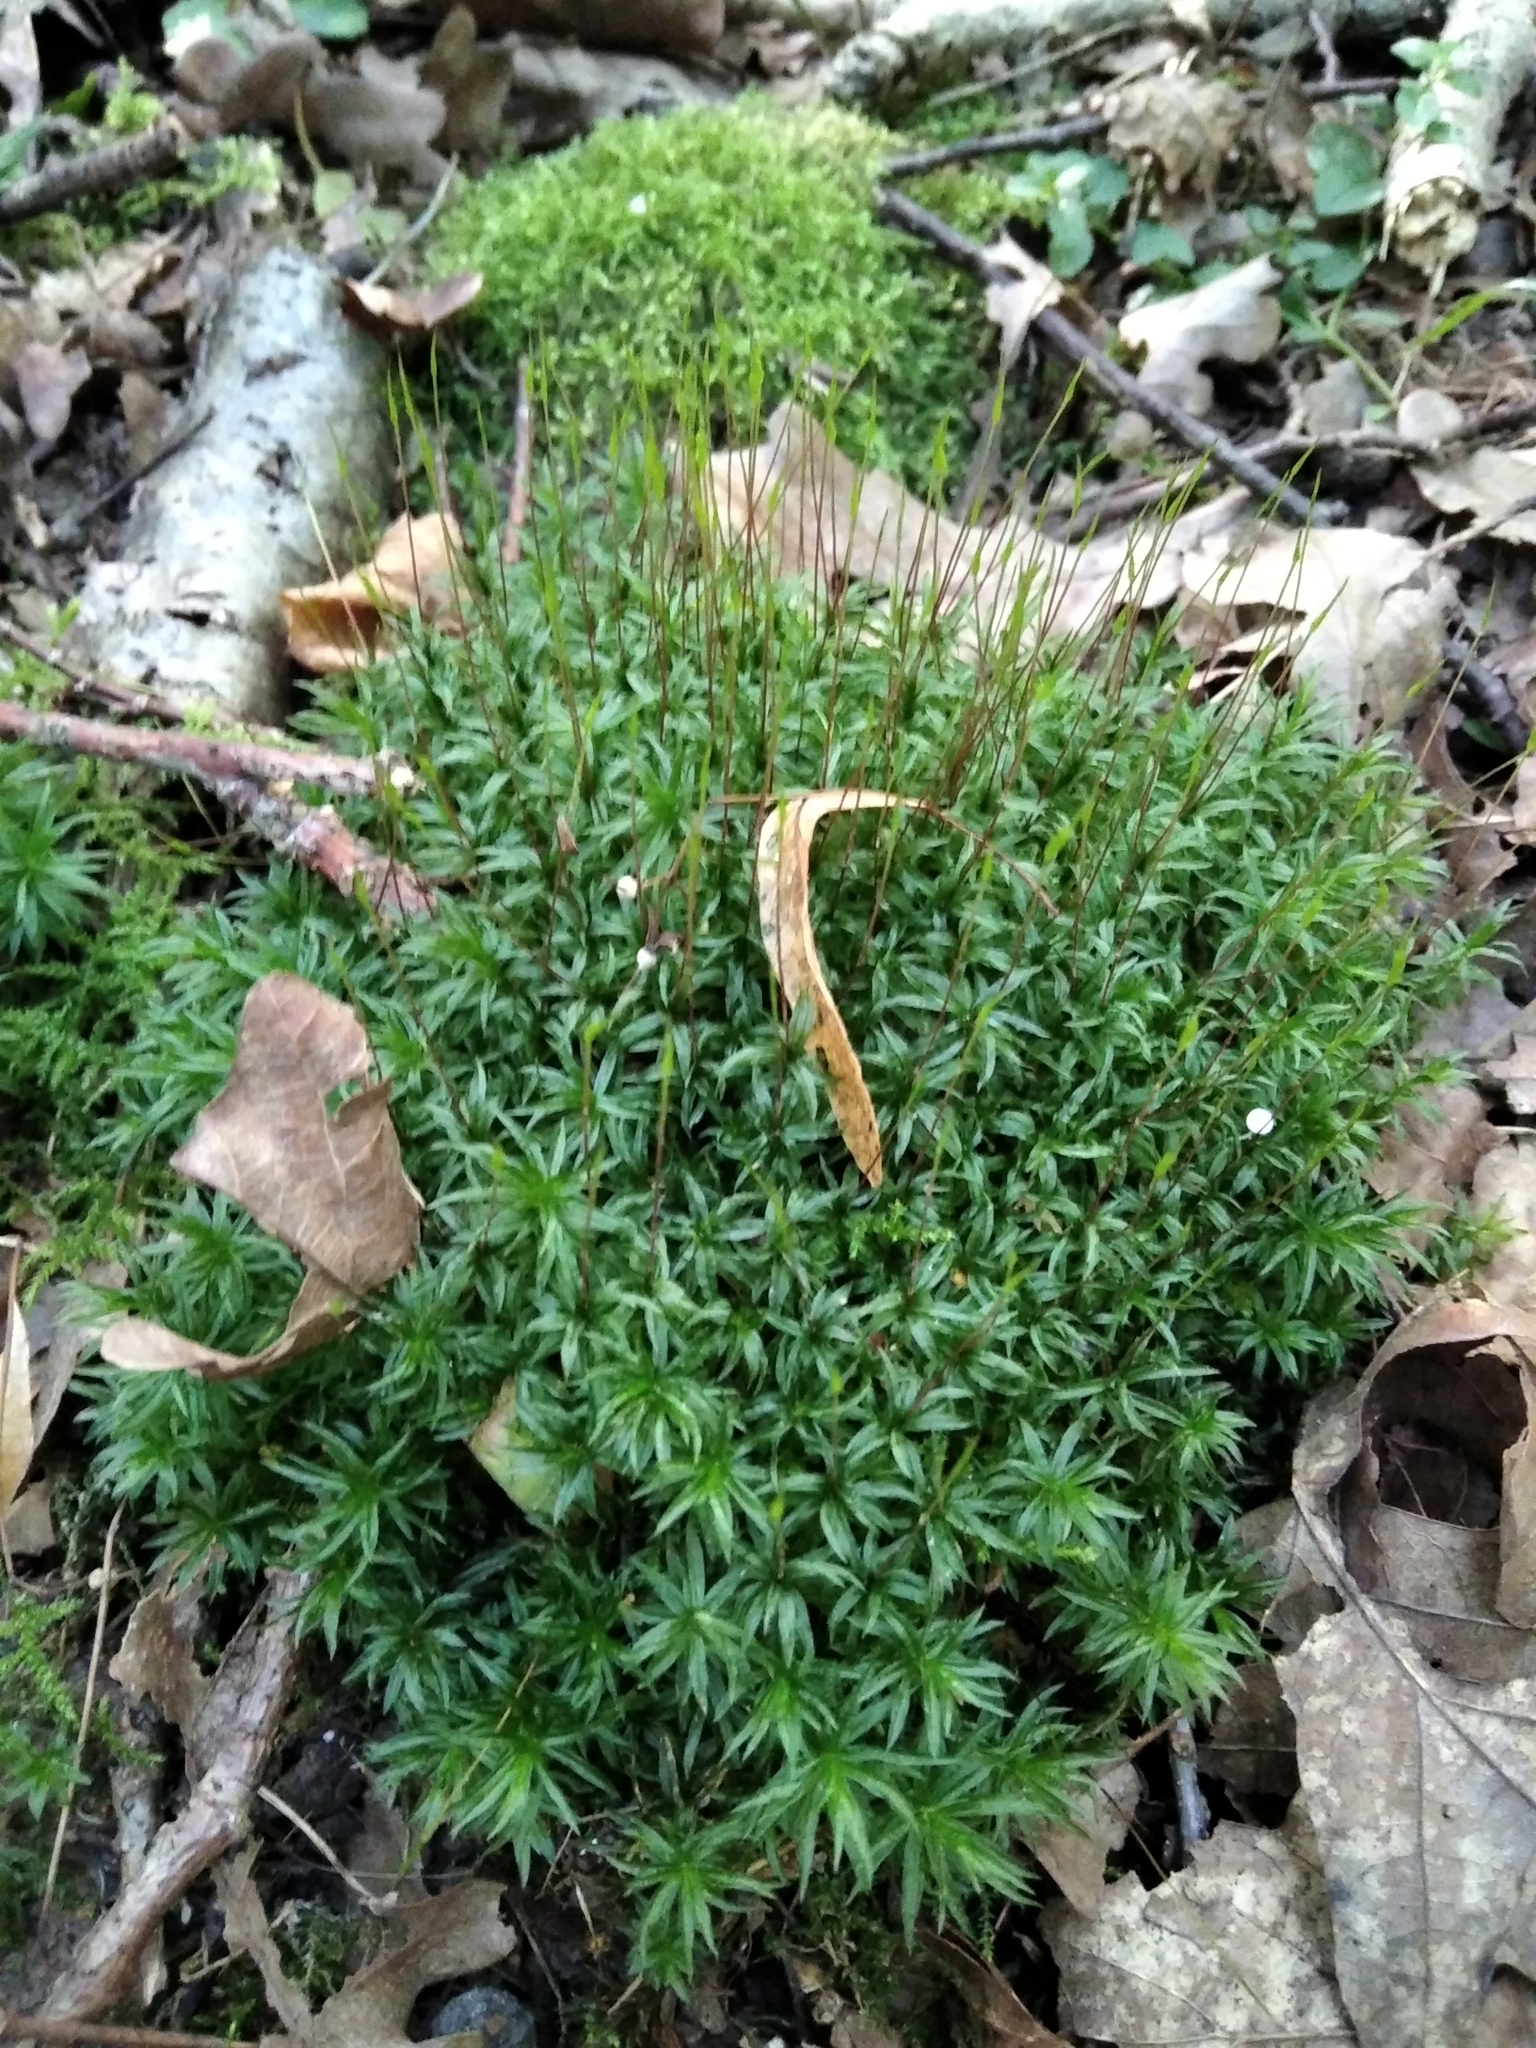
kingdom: Plantae
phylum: Bryophyta
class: Polytrichopsida
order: Polytrichales
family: Polytrichaceae
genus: Atrichum
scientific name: Atrichum undulatum
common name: Common smoothcap
